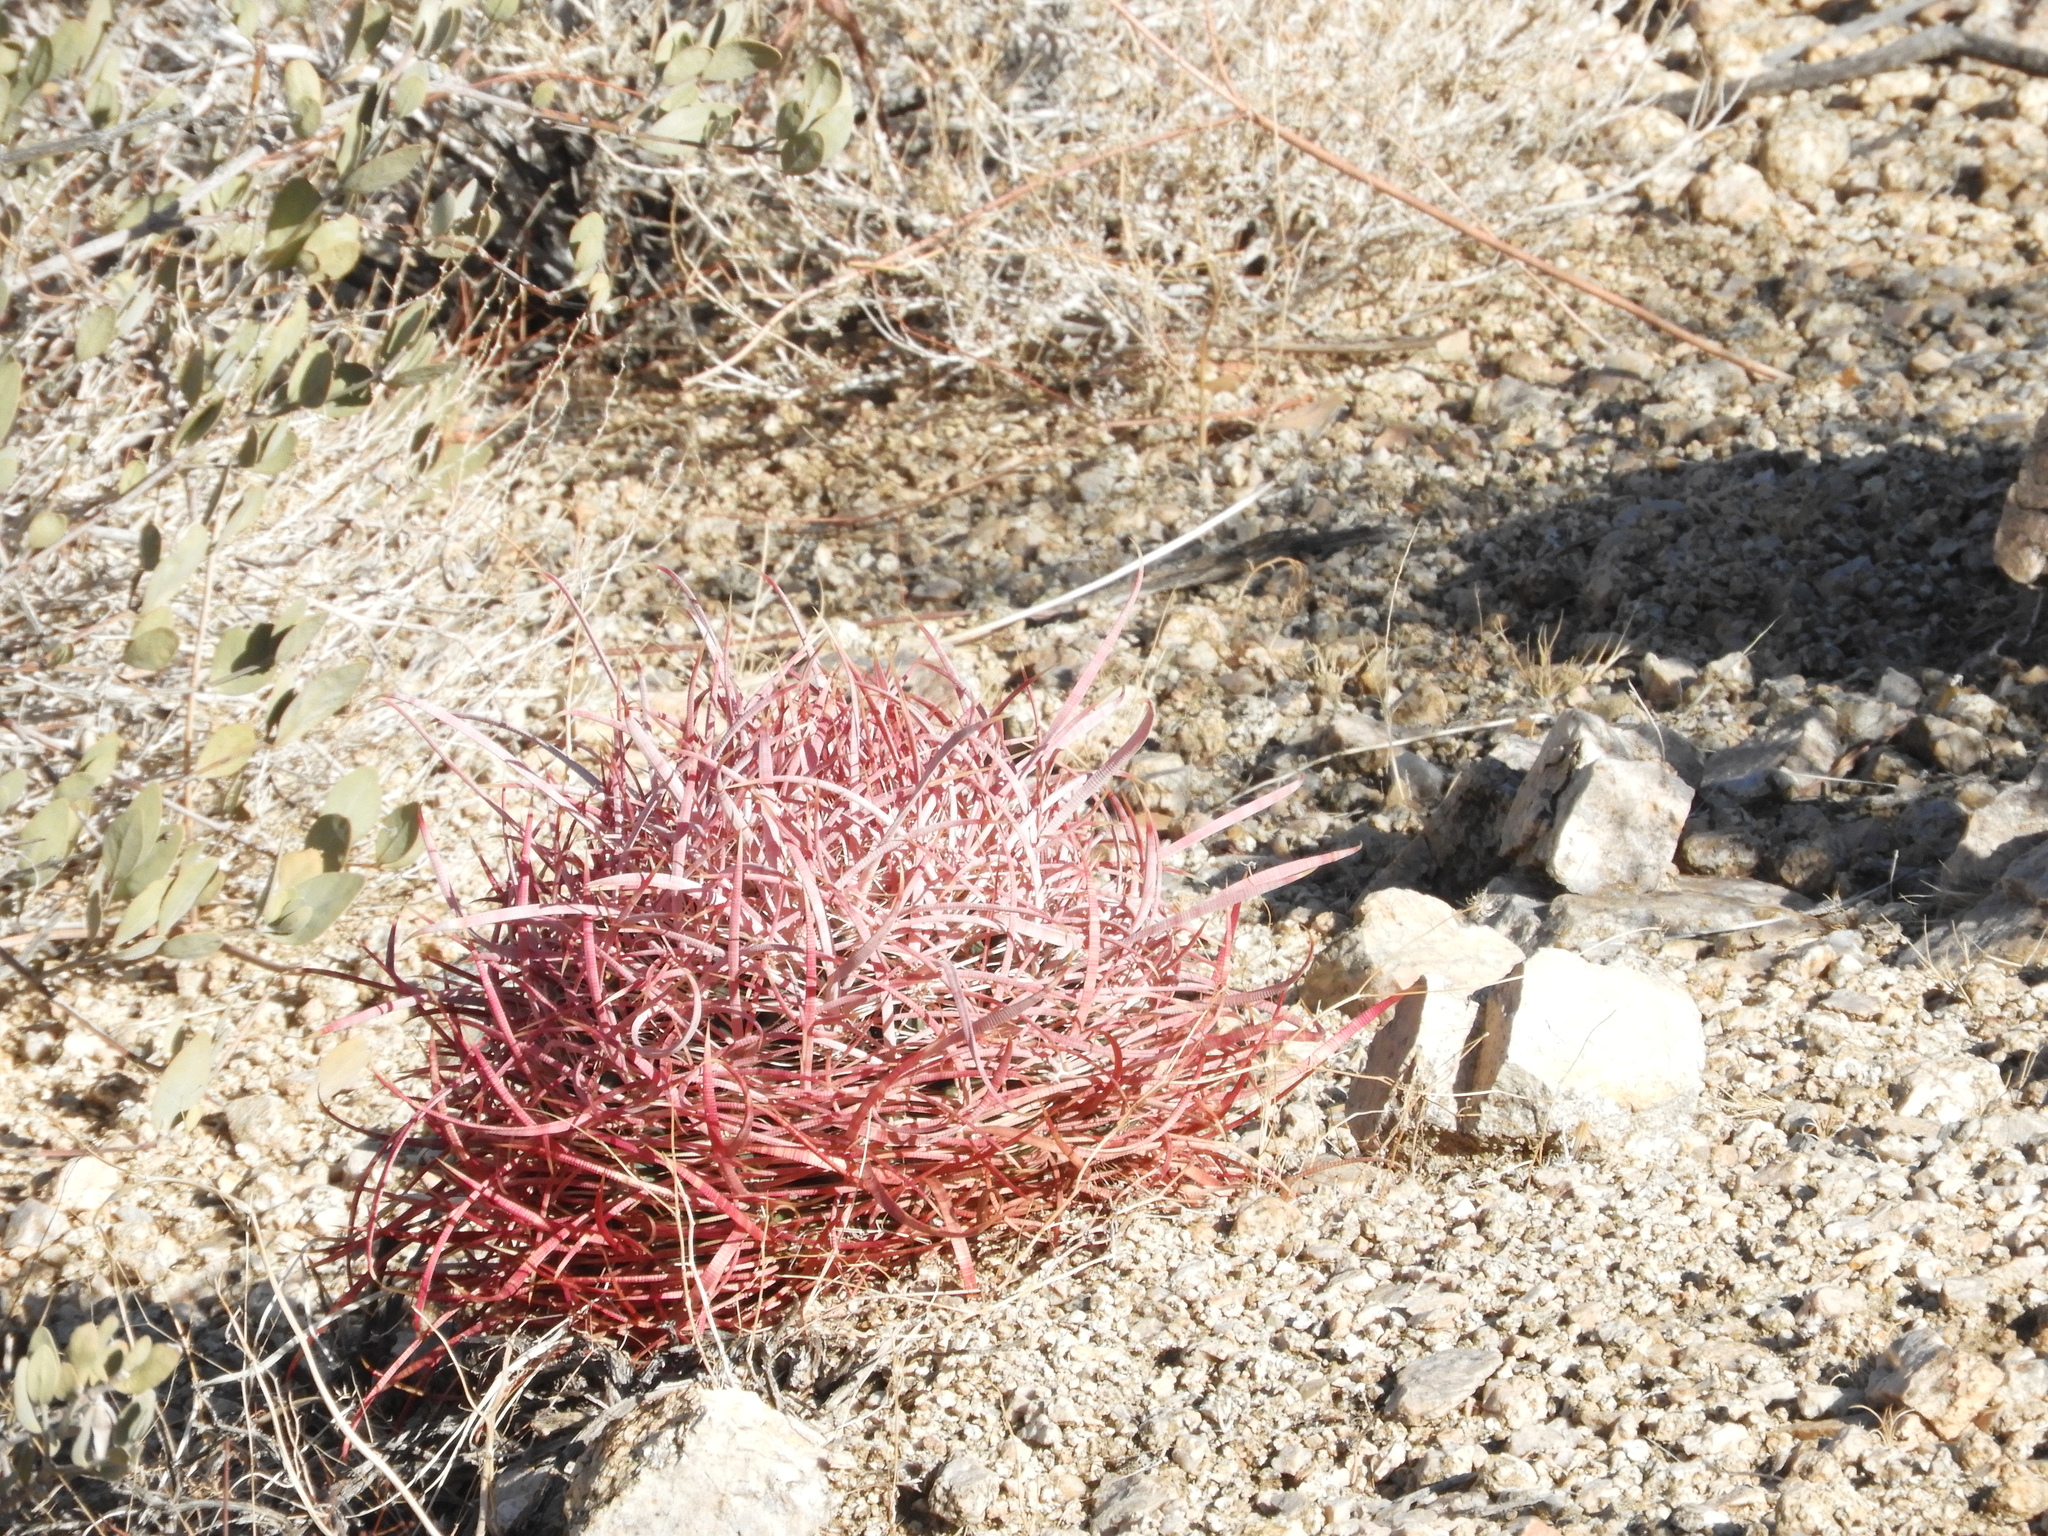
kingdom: Plantae
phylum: Tracheophyta
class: Magnoliopsida
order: Caryophyllales
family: Cactaceae
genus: Ferocactus
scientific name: Ferocactus cylindraceus
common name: California barrel cactus
